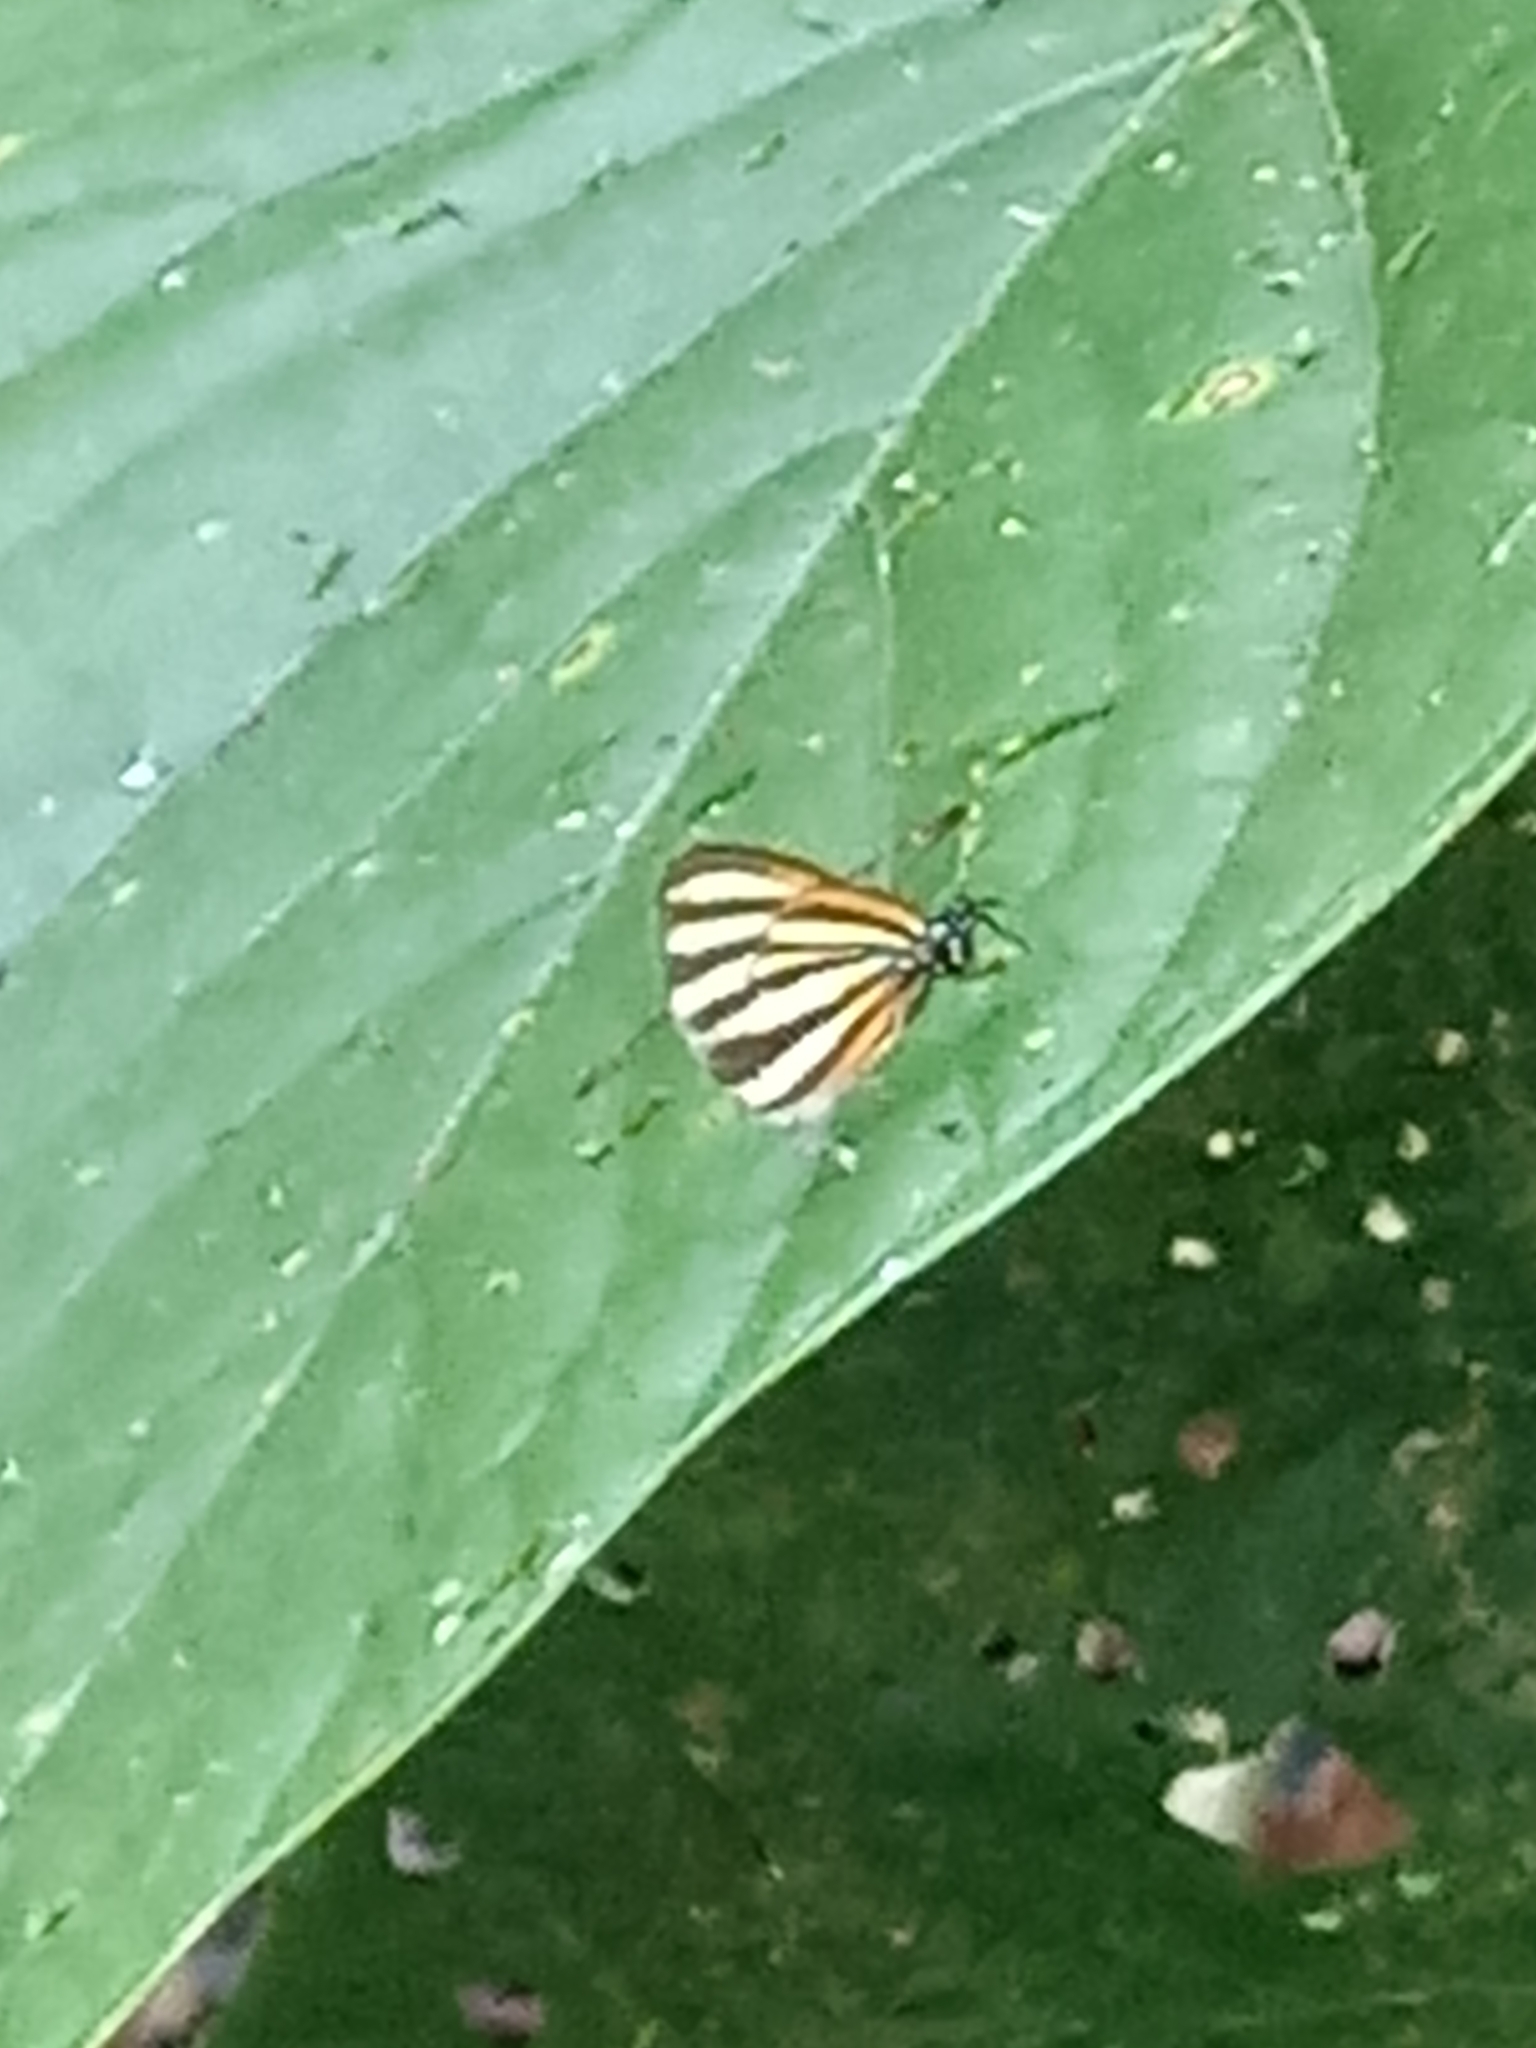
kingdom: Animalia
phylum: Arthropoda
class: Insecta
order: Lepidoptera
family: Lycaenidae
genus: Thecla
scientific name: Thecla aetolus
